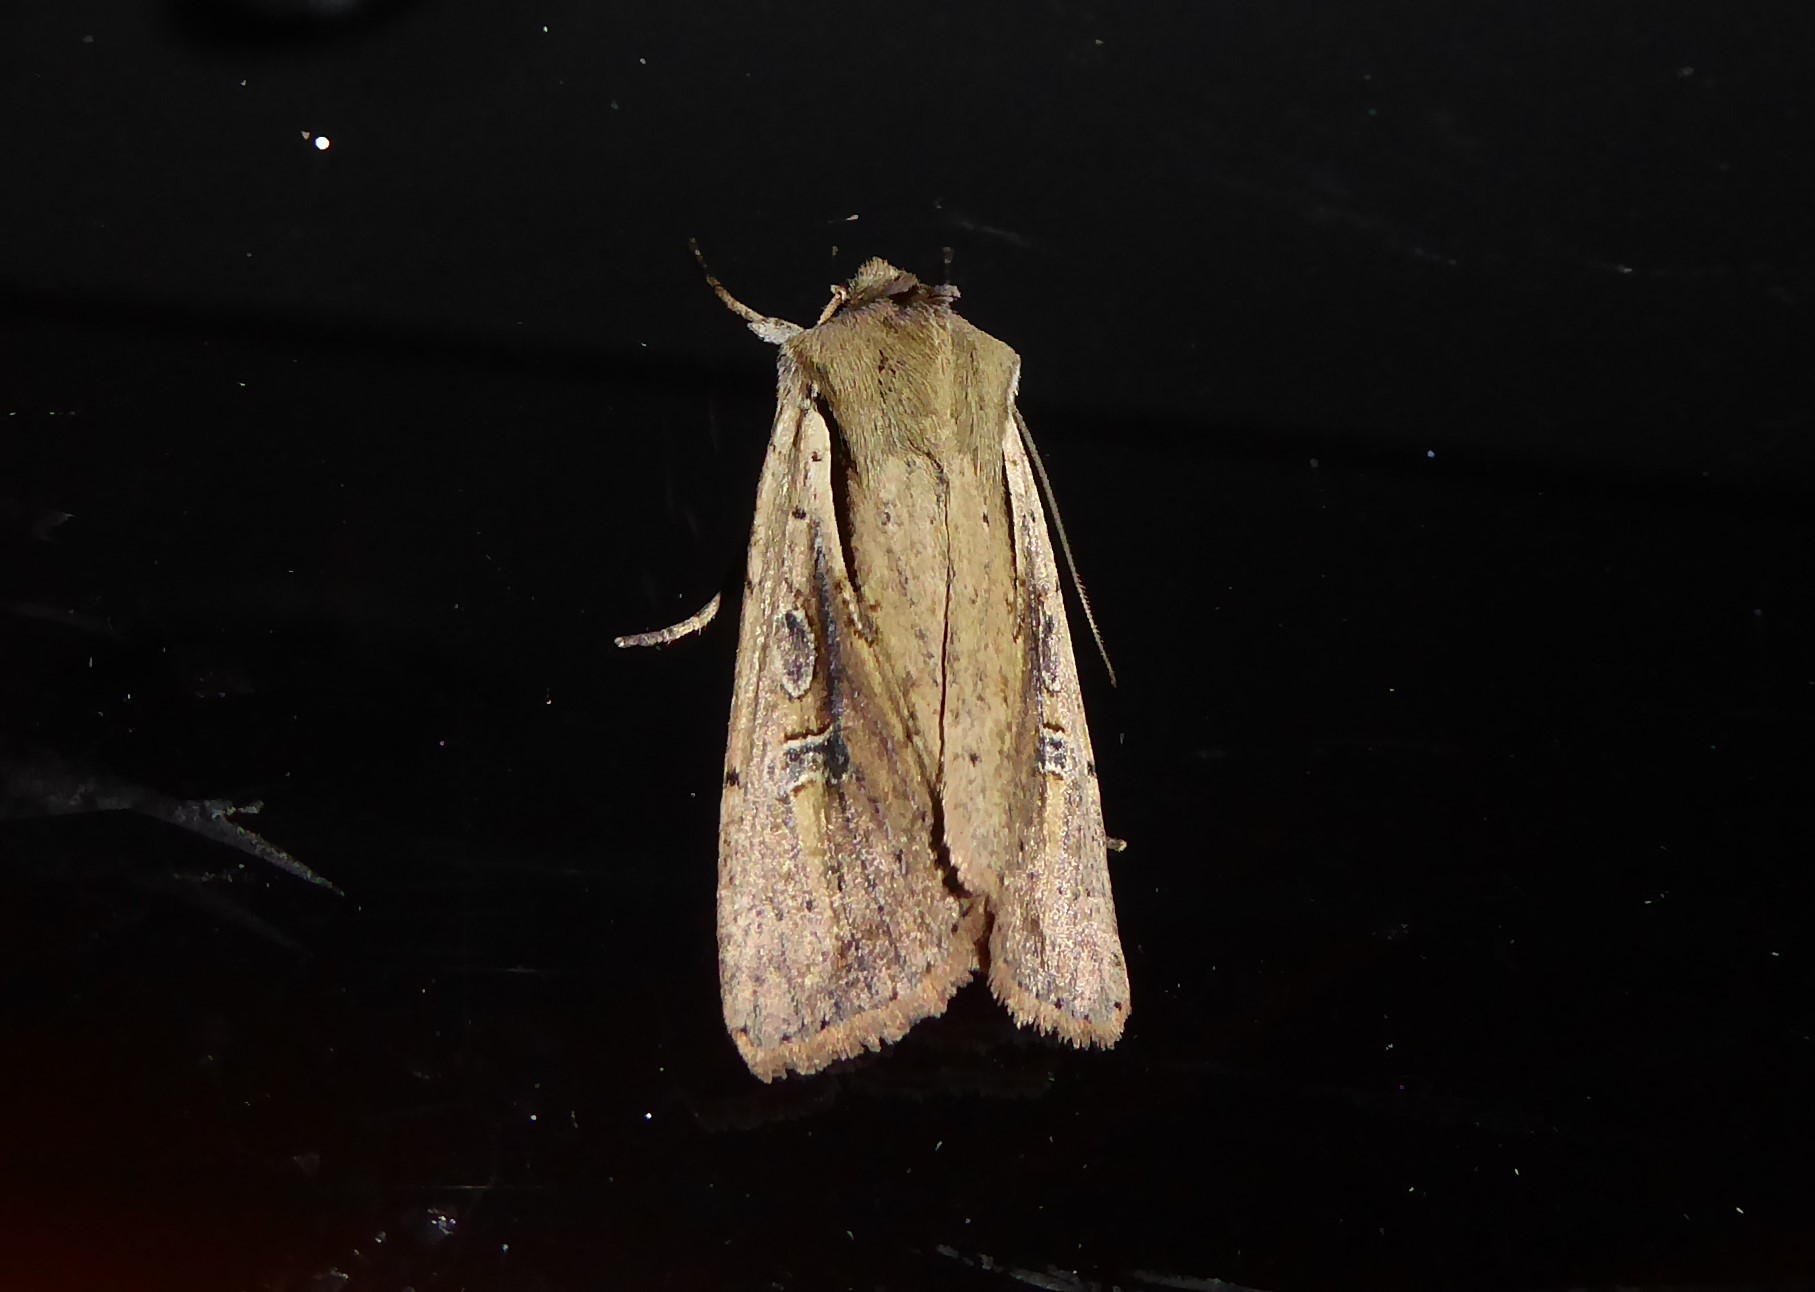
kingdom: Animalia
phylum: Arthropoda
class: Insecta
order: Lepidoptera
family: Noctuidae
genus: Ichneutica
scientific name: Ichneutica atristriga
